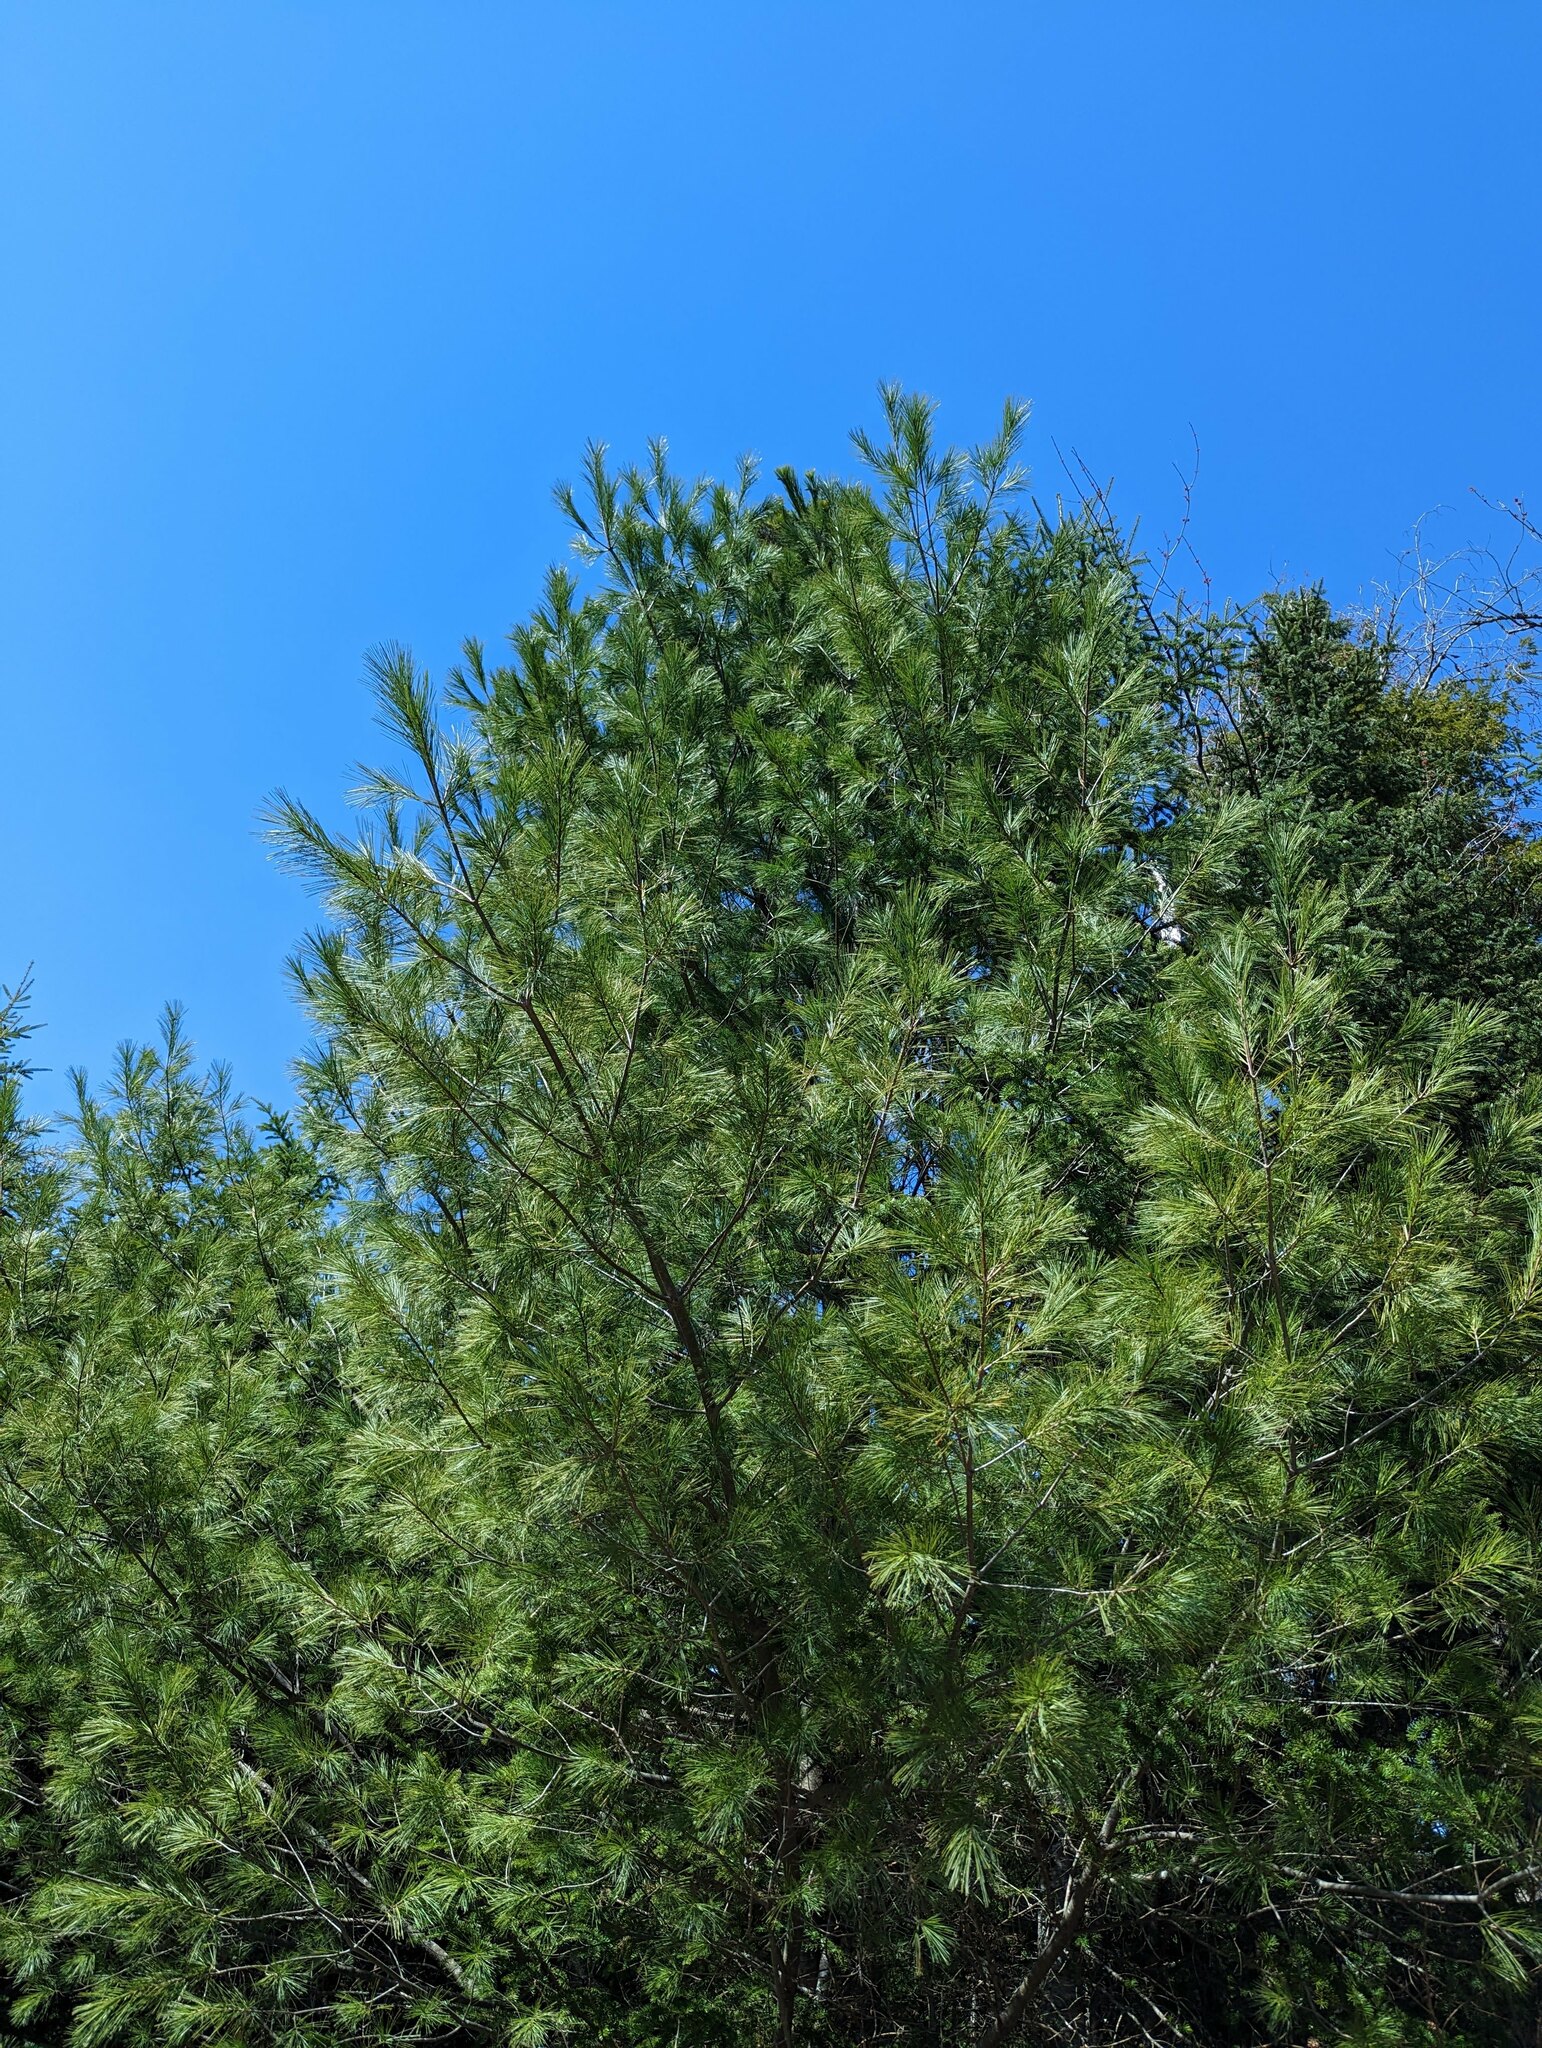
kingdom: Plantae
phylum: Tracheophyta
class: Pinopsida
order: Pinales
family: Pinaceae
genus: Pinus
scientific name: Pinus strobus
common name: Weymouth pine
